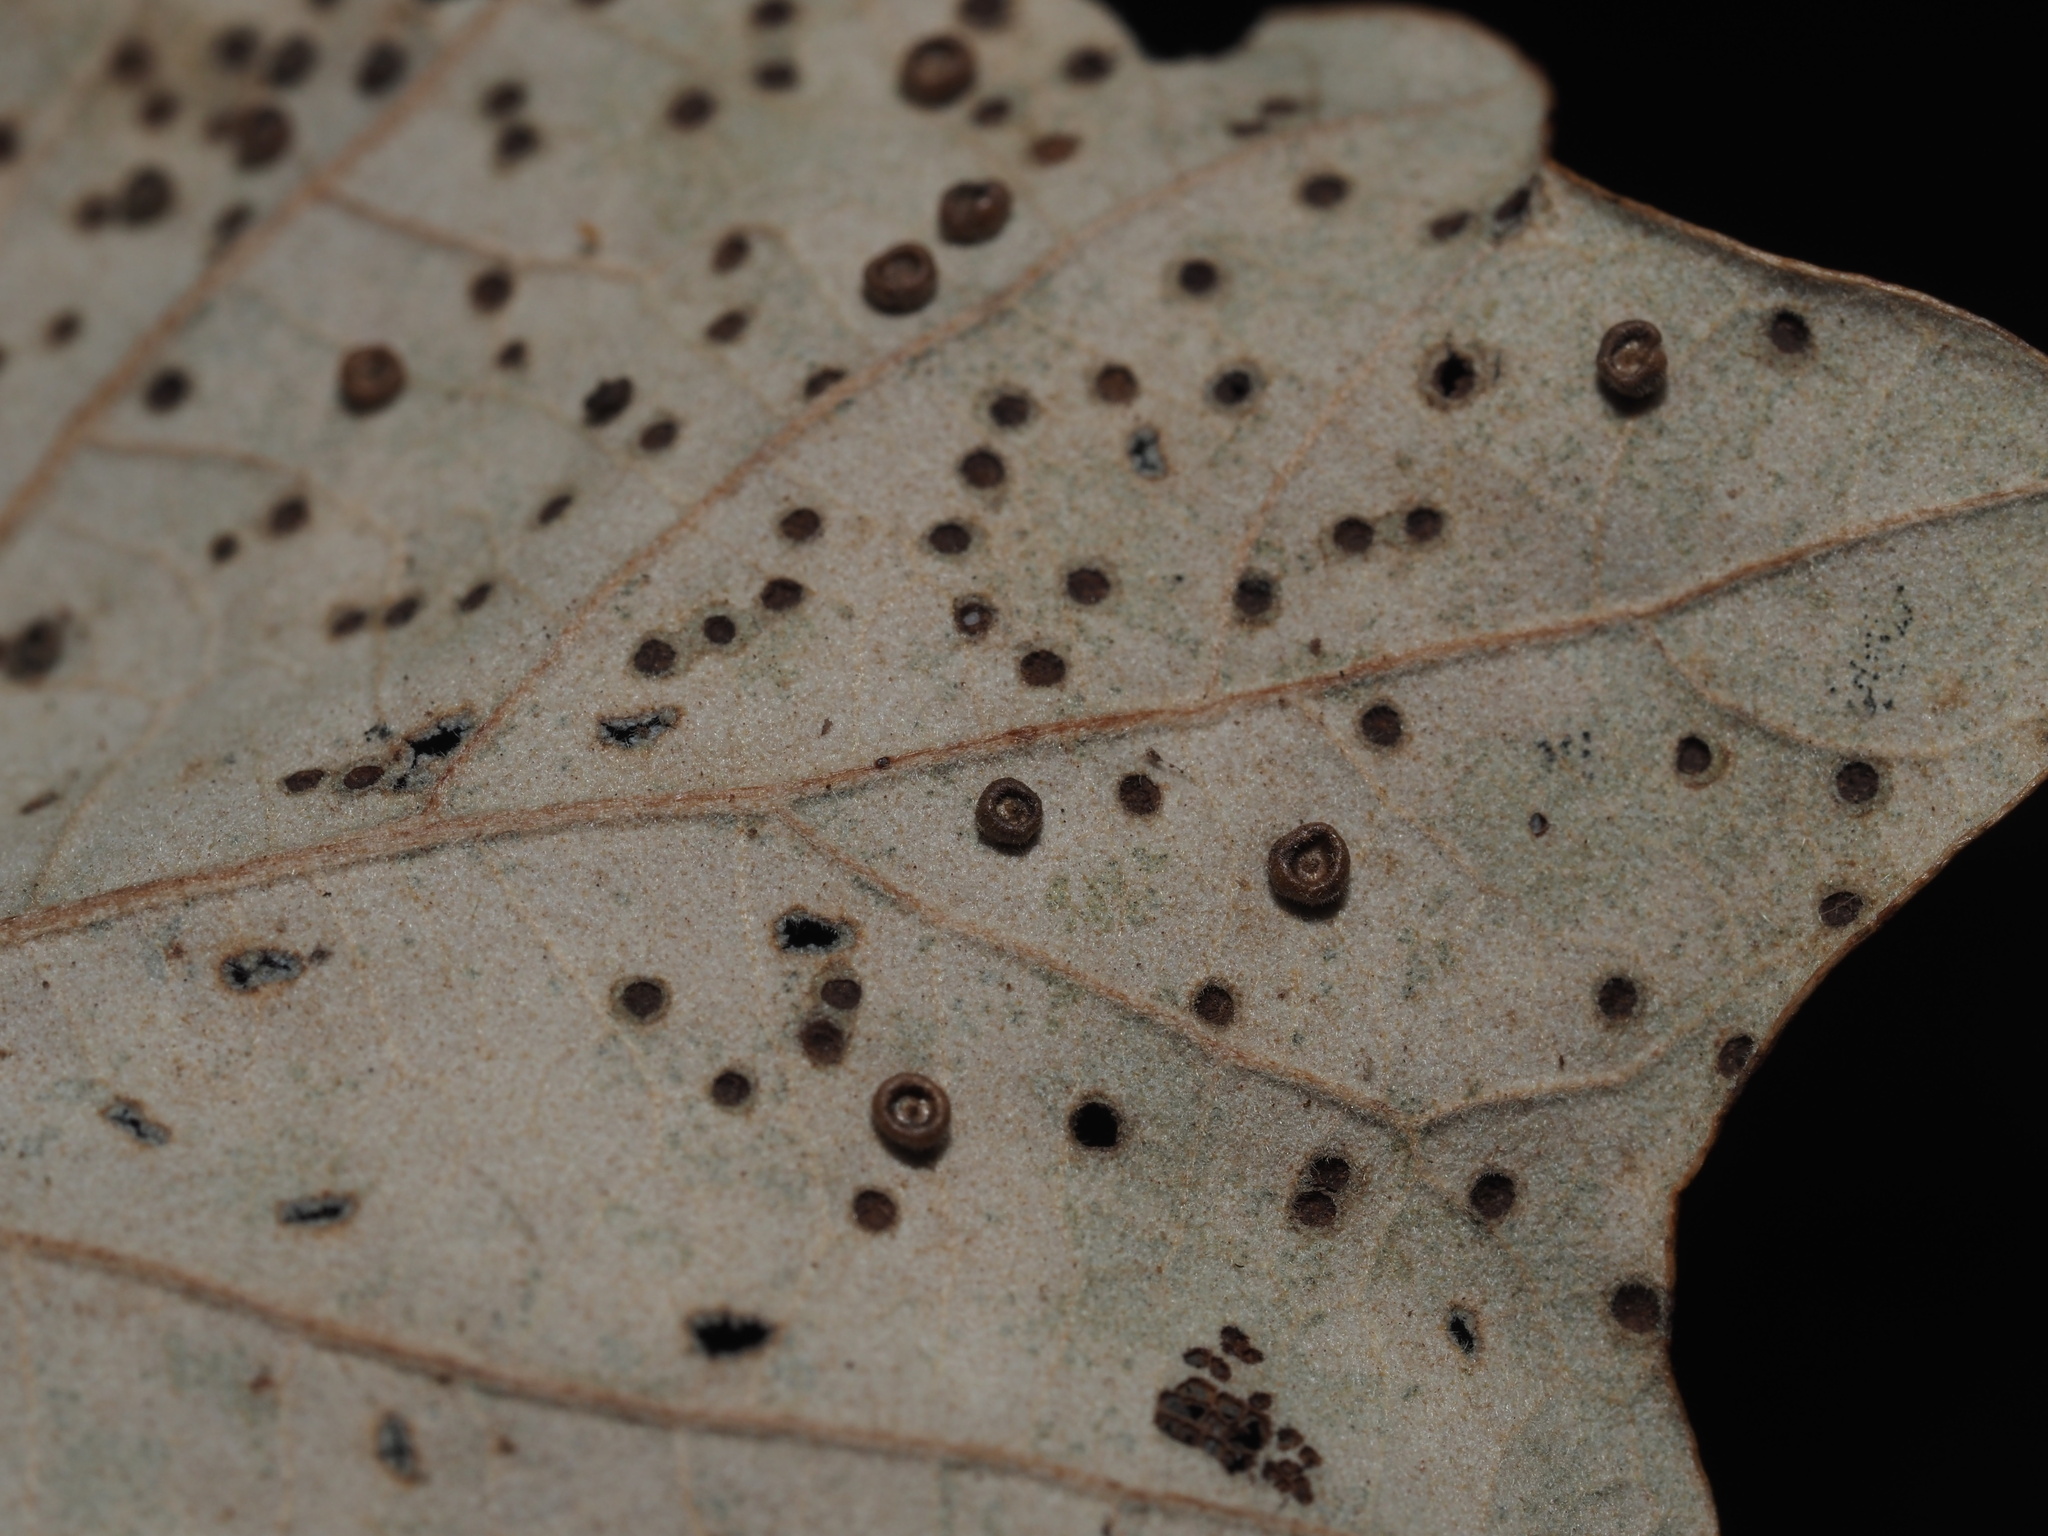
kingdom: Animalia
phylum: Arthropoda
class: Insecta
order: Hymenoptera
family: Cynipidae
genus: Neuroterus
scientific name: Neuroterus
